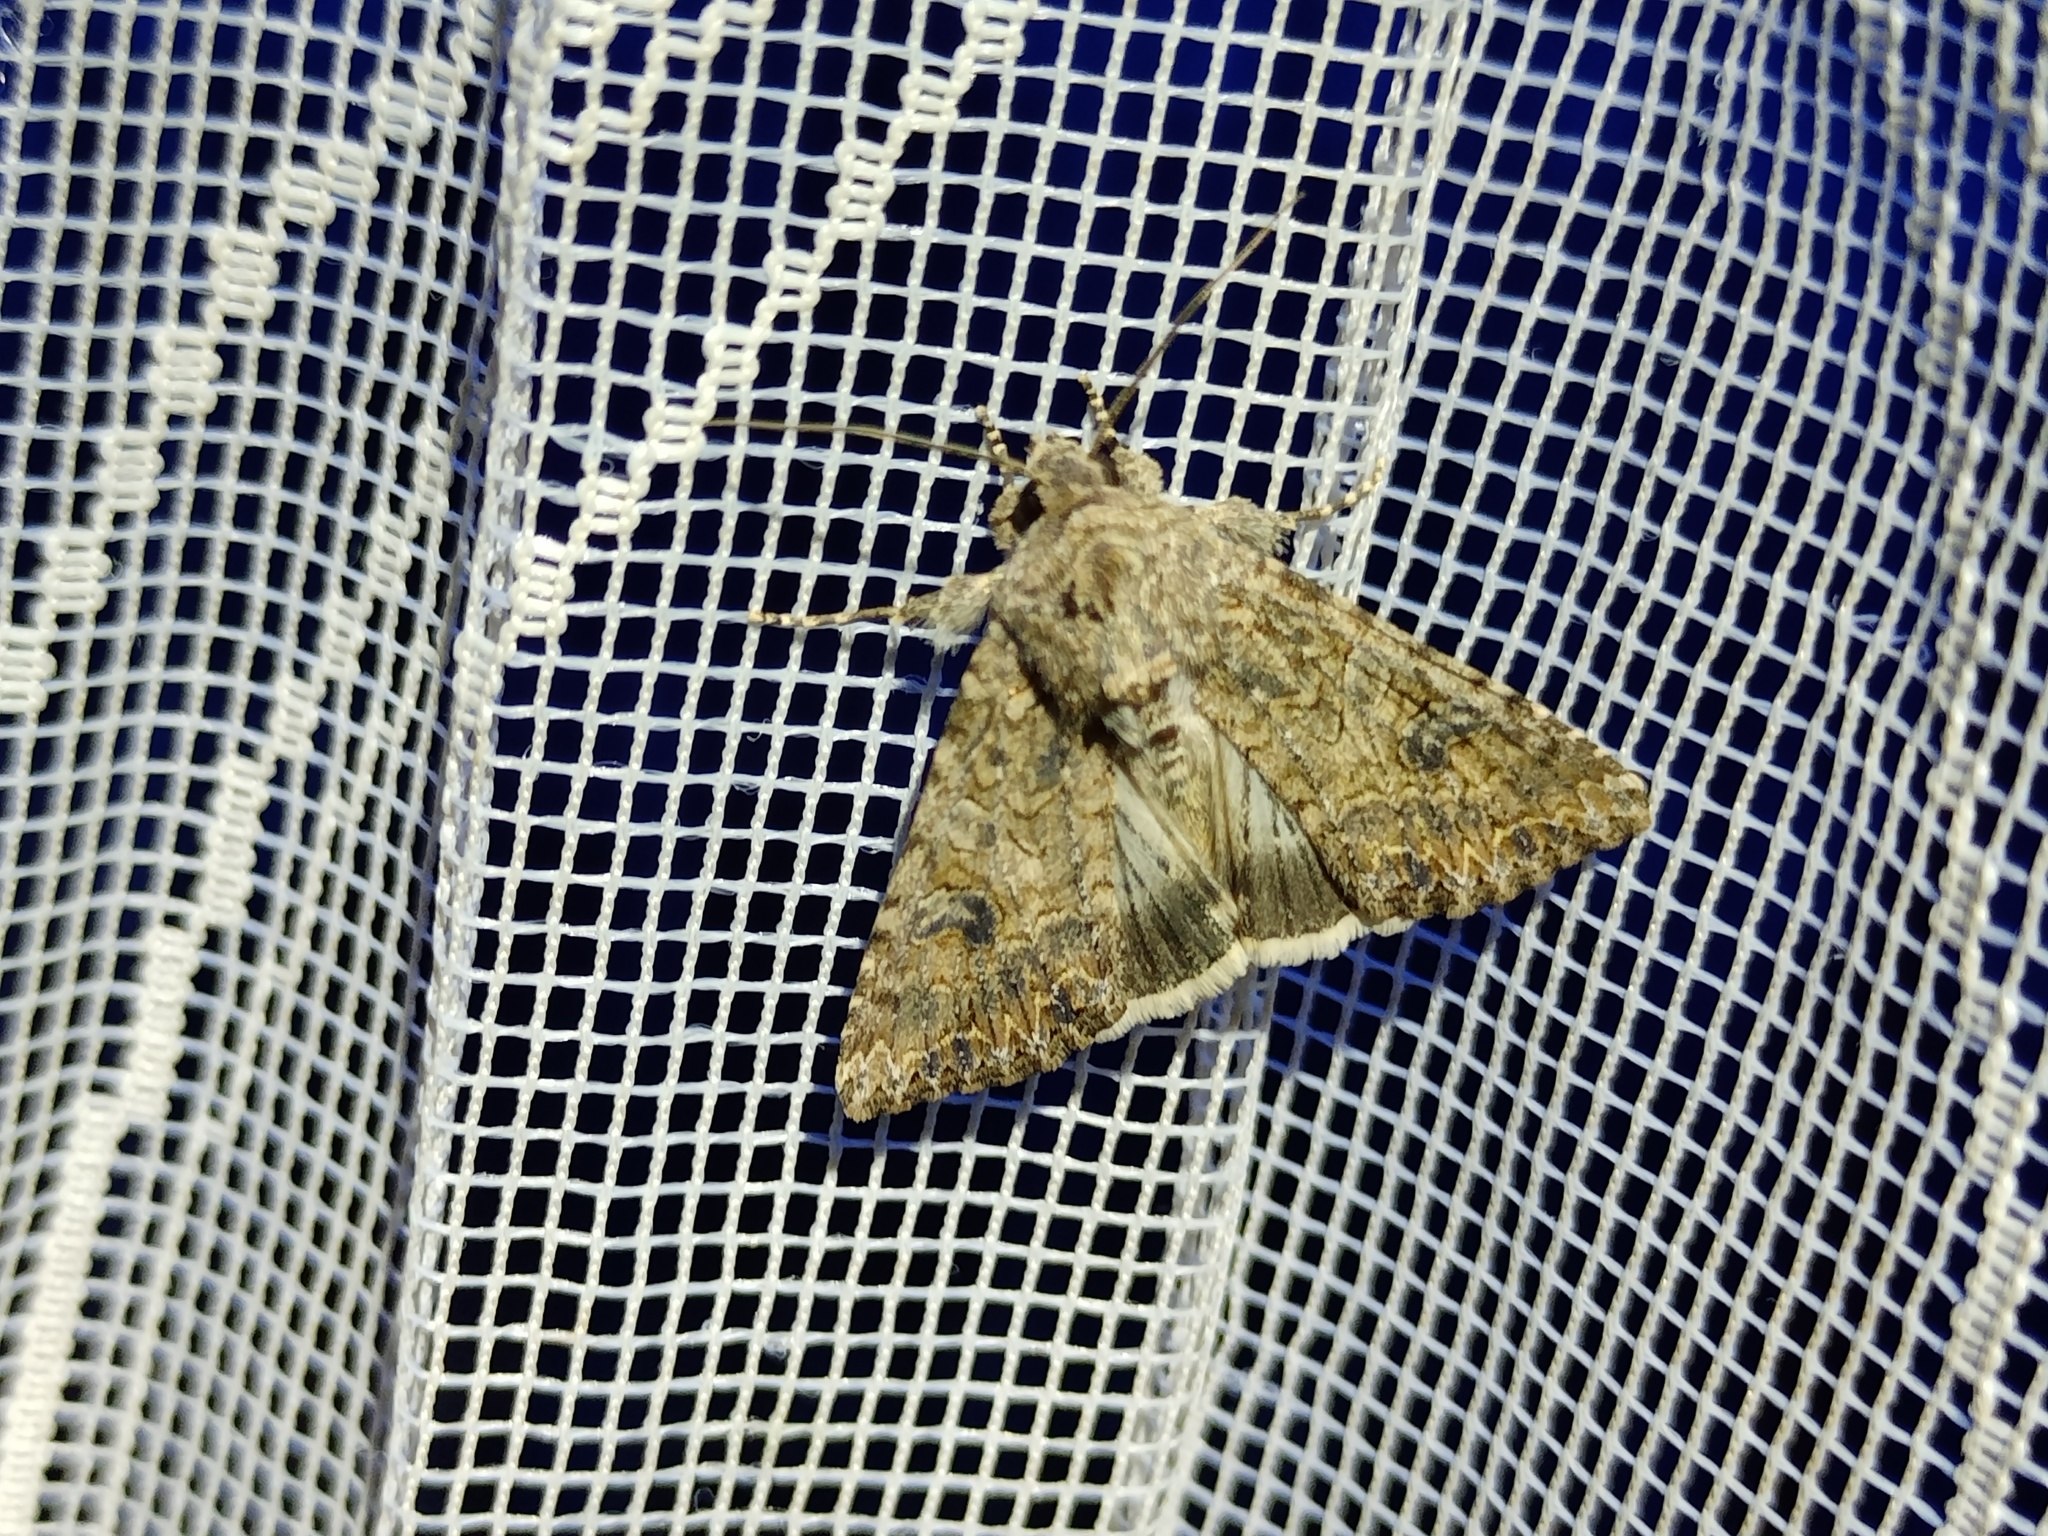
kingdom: Animalia
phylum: Arthropoda
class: Insecta
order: Lepidoptera
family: Noctuidae
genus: Anarta
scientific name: Anarta trifolii
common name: Clover cutworm moth
